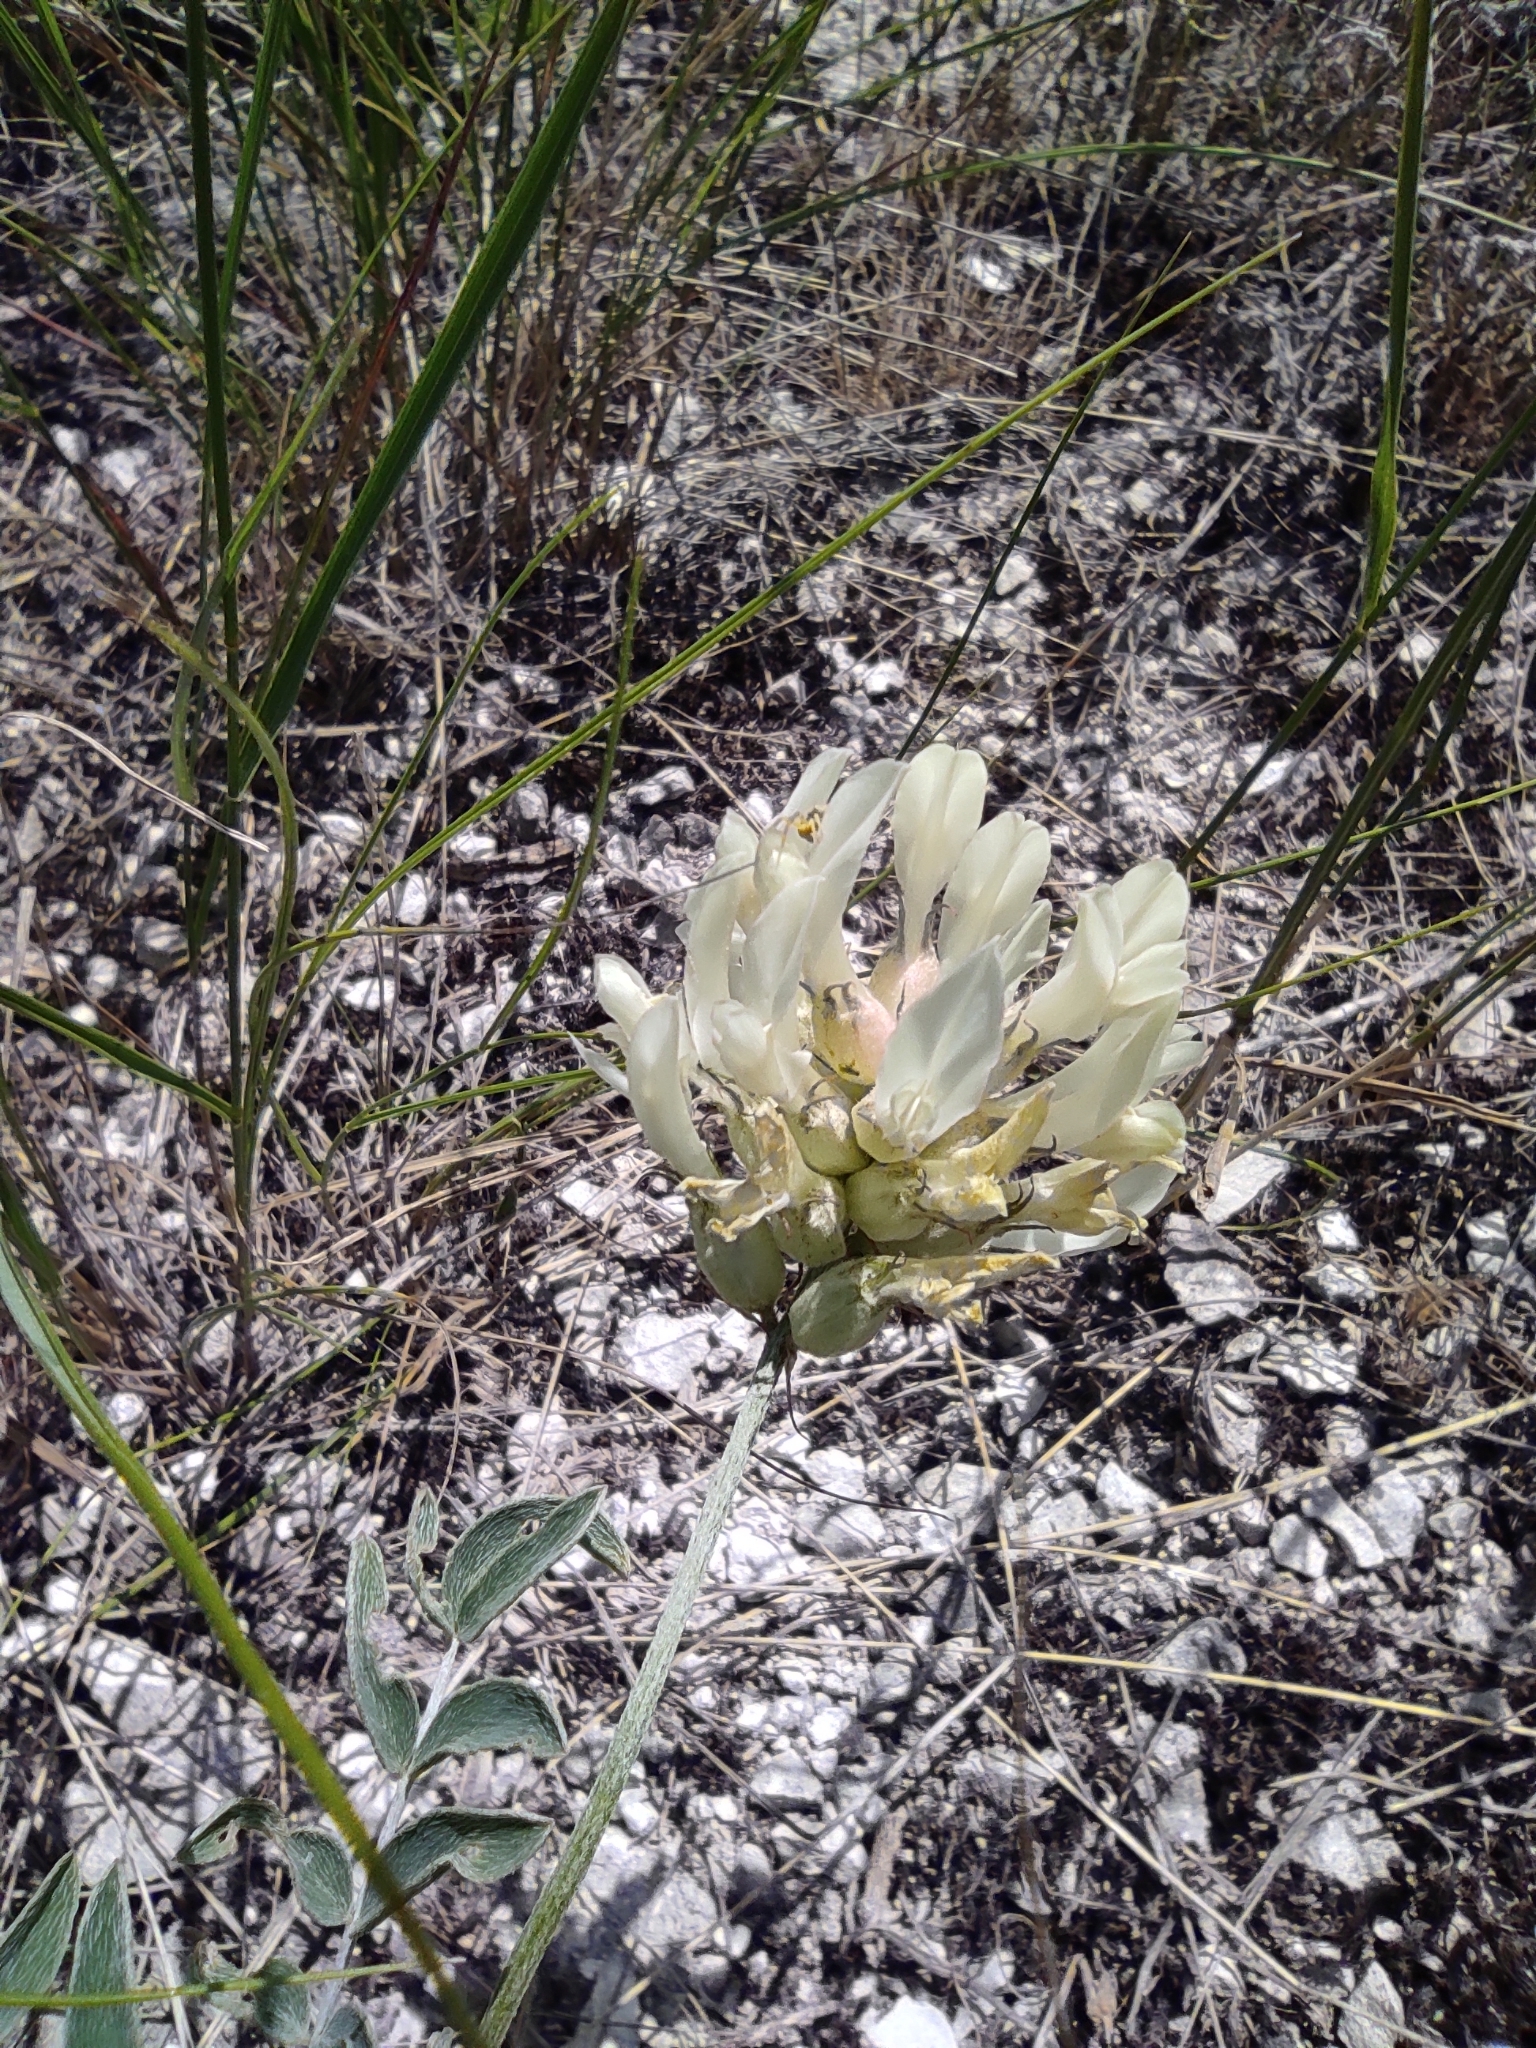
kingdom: Plantae
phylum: Tracheophyta
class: Magnoliopsida
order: Fabales
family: Fabaceae
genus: Astragalus
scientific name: Astragalus albicaulis
